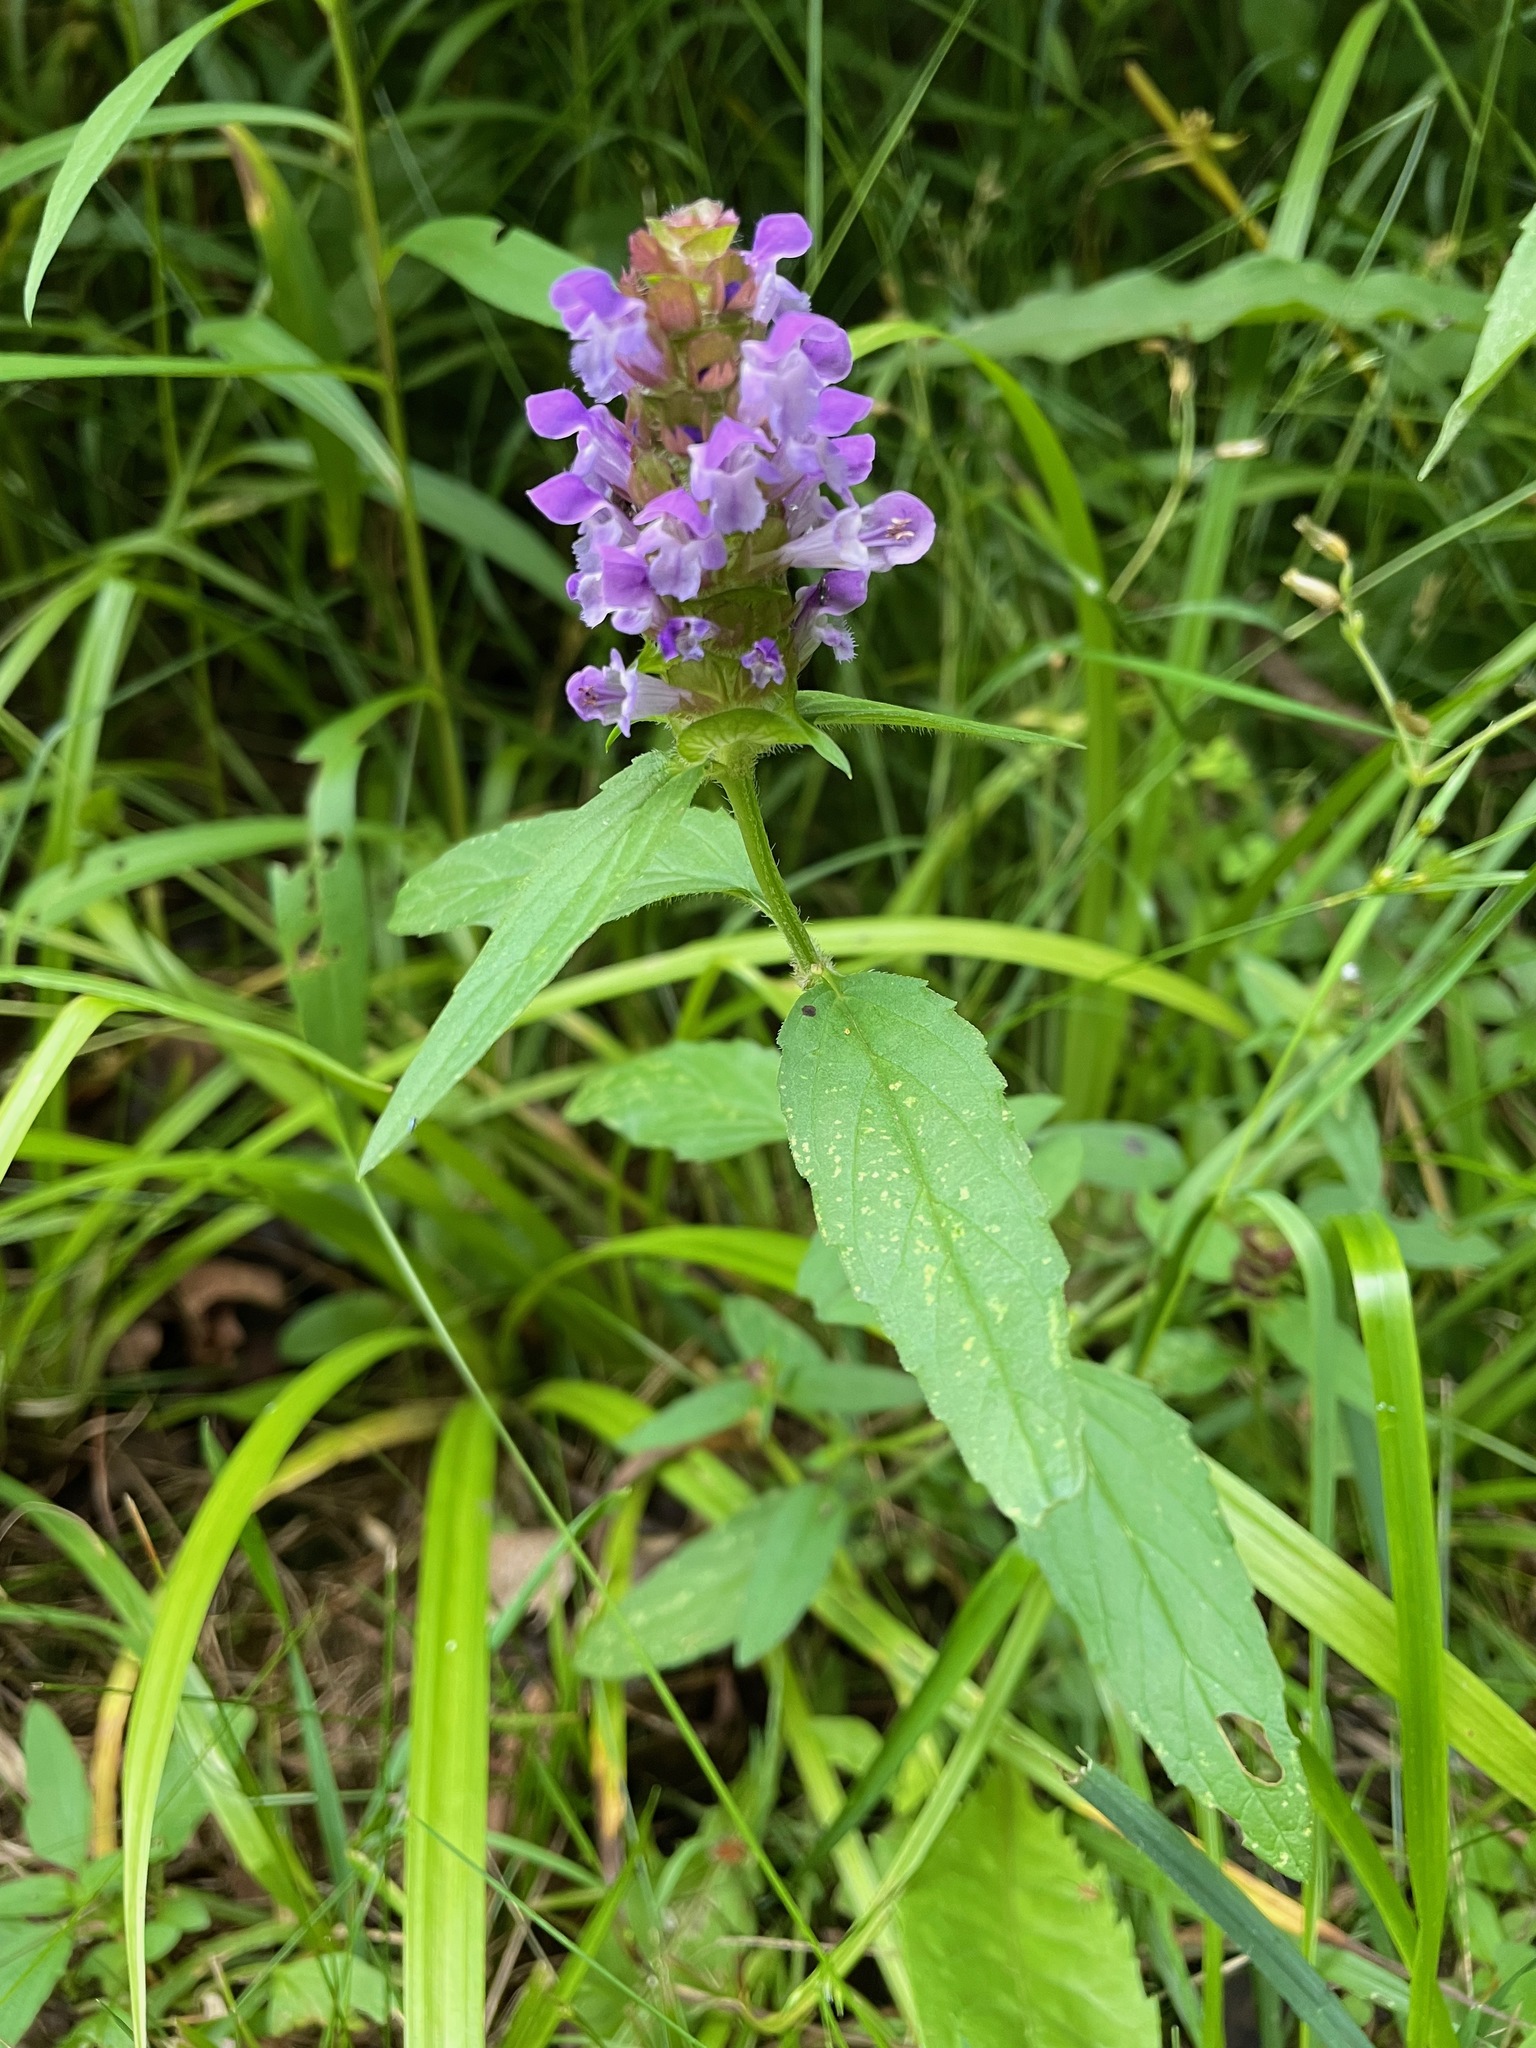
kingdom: Plantae
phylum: Tracheophyta
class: Magnoliopsida
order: Lamiales
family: Lamiaceae
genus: Prunella
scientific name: Prunella vulgaris
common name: Heal-all
